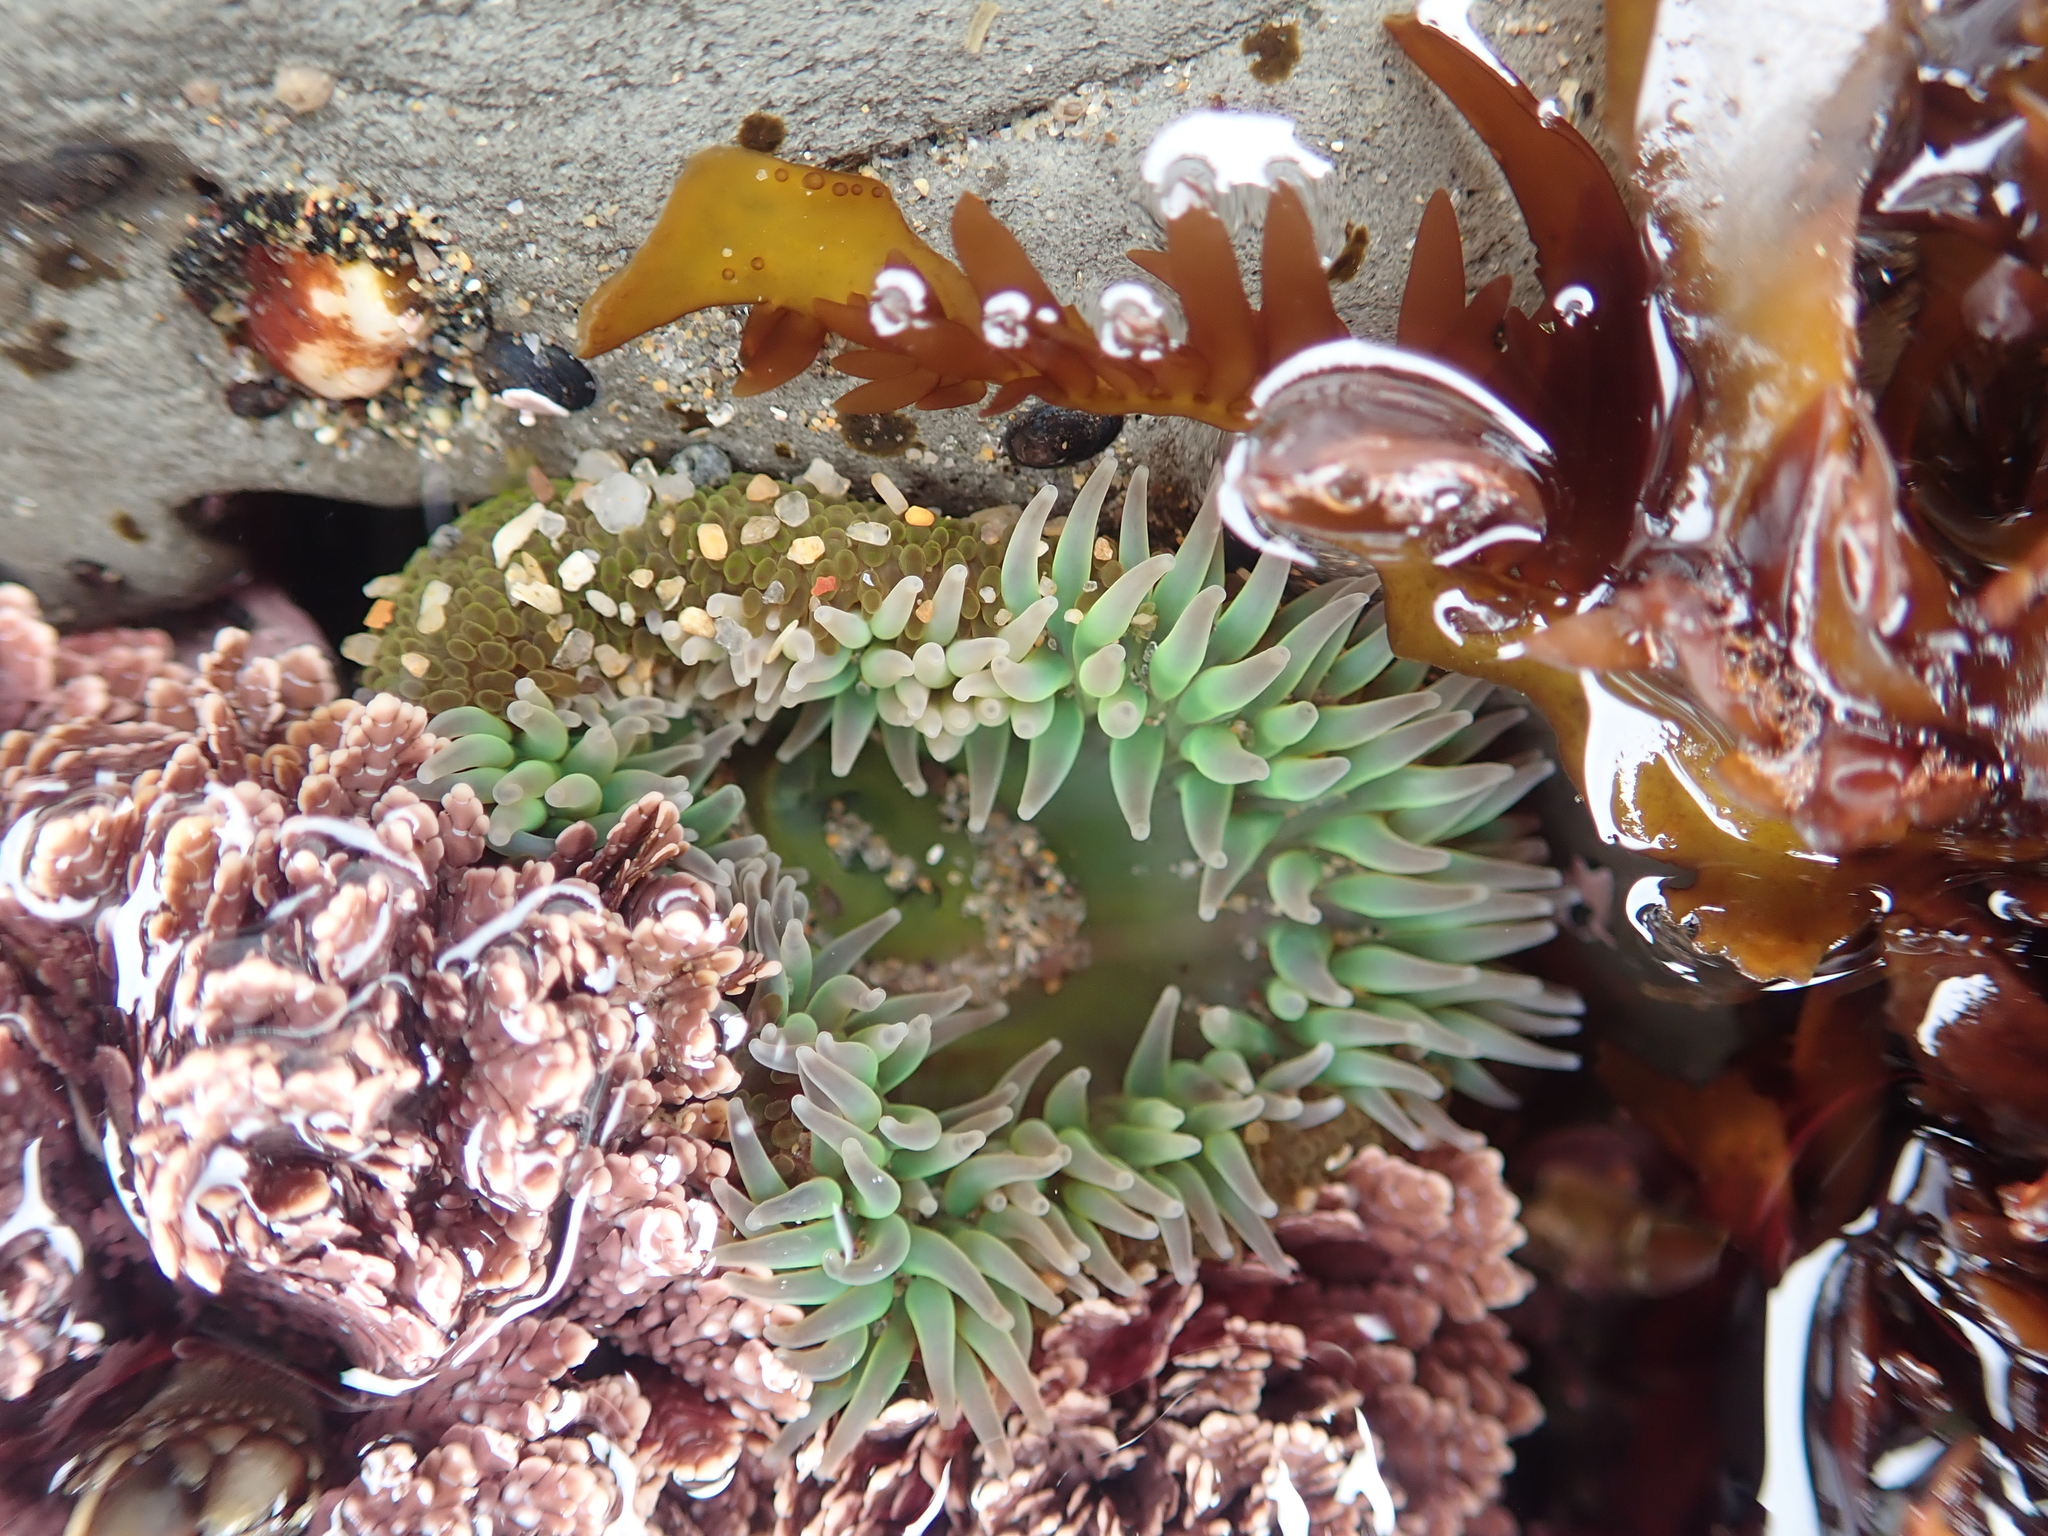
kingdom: Animalia
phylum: Cnidaria
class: Anthozoa
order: Actiniaria
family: Actiniidae
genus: Anthopleura
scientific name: Anthopleura xanthogrammica
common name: Giant green anemone
